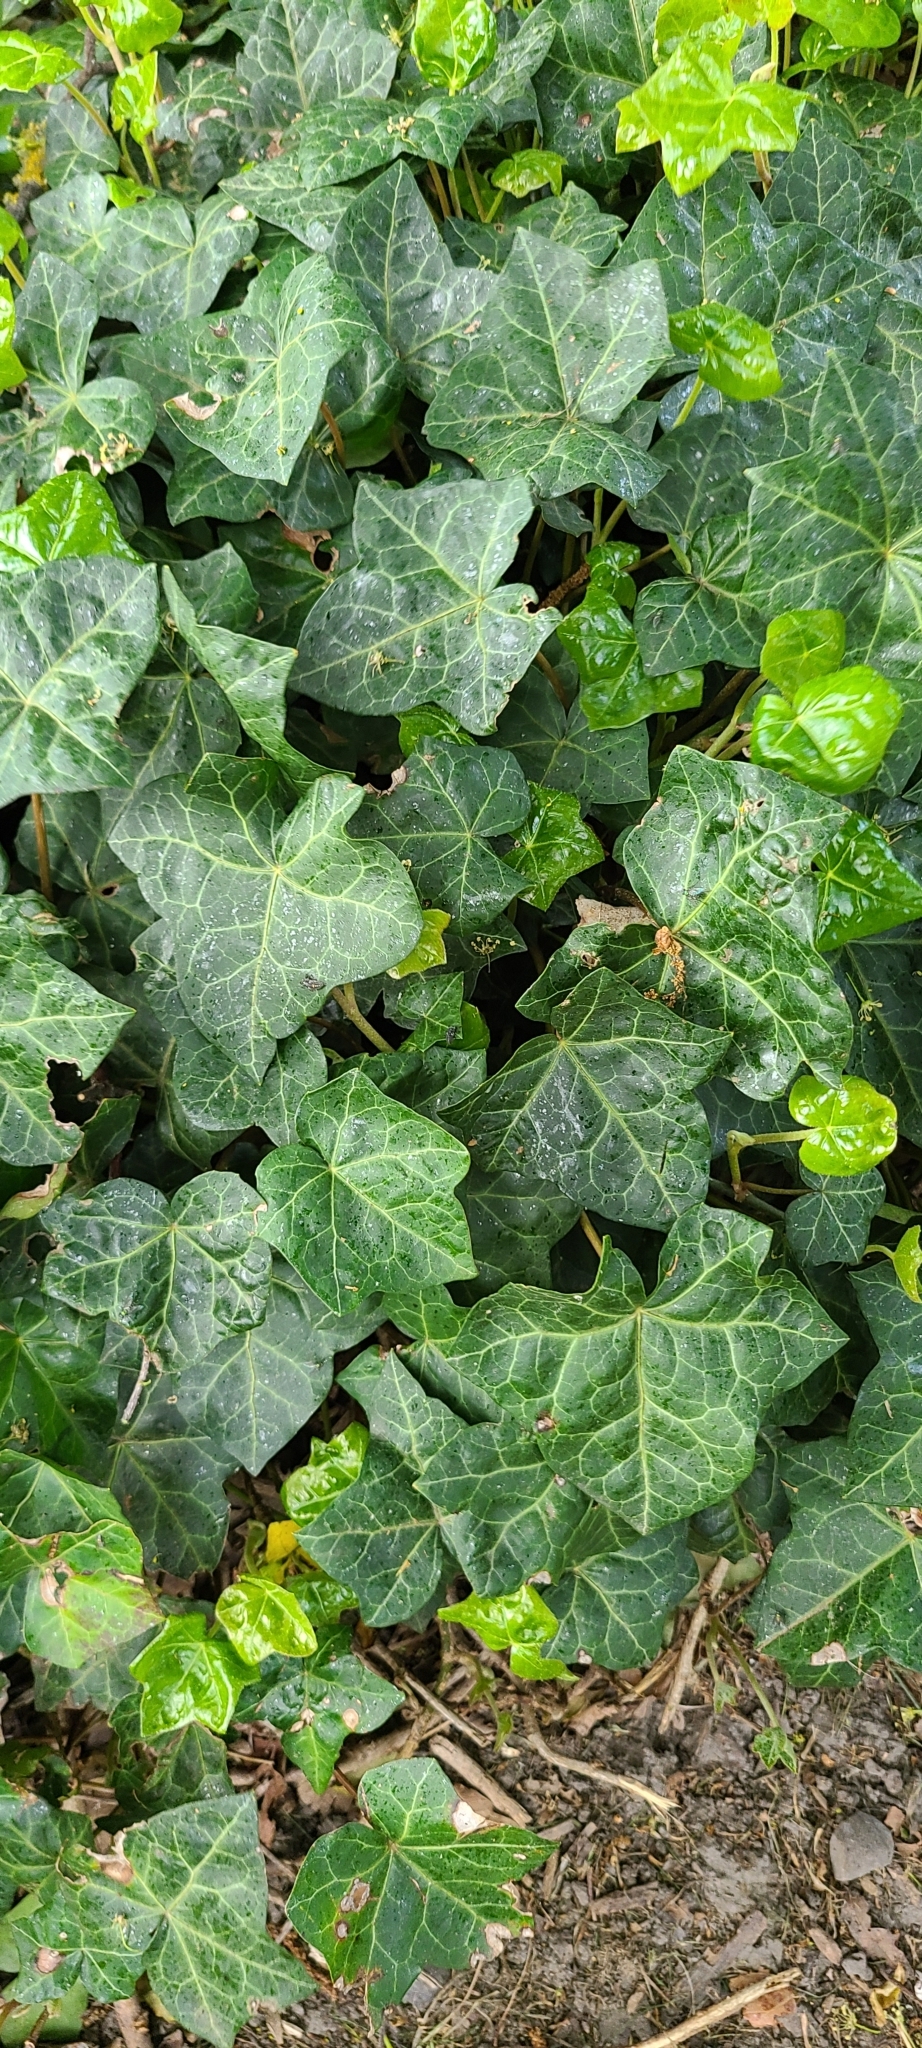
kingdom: Plantae
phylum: Tracheophyta
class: Magnoliopsida
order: Apiales
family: Araliaceae
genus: Hedera
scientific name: Hedera helix
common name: Ivy
